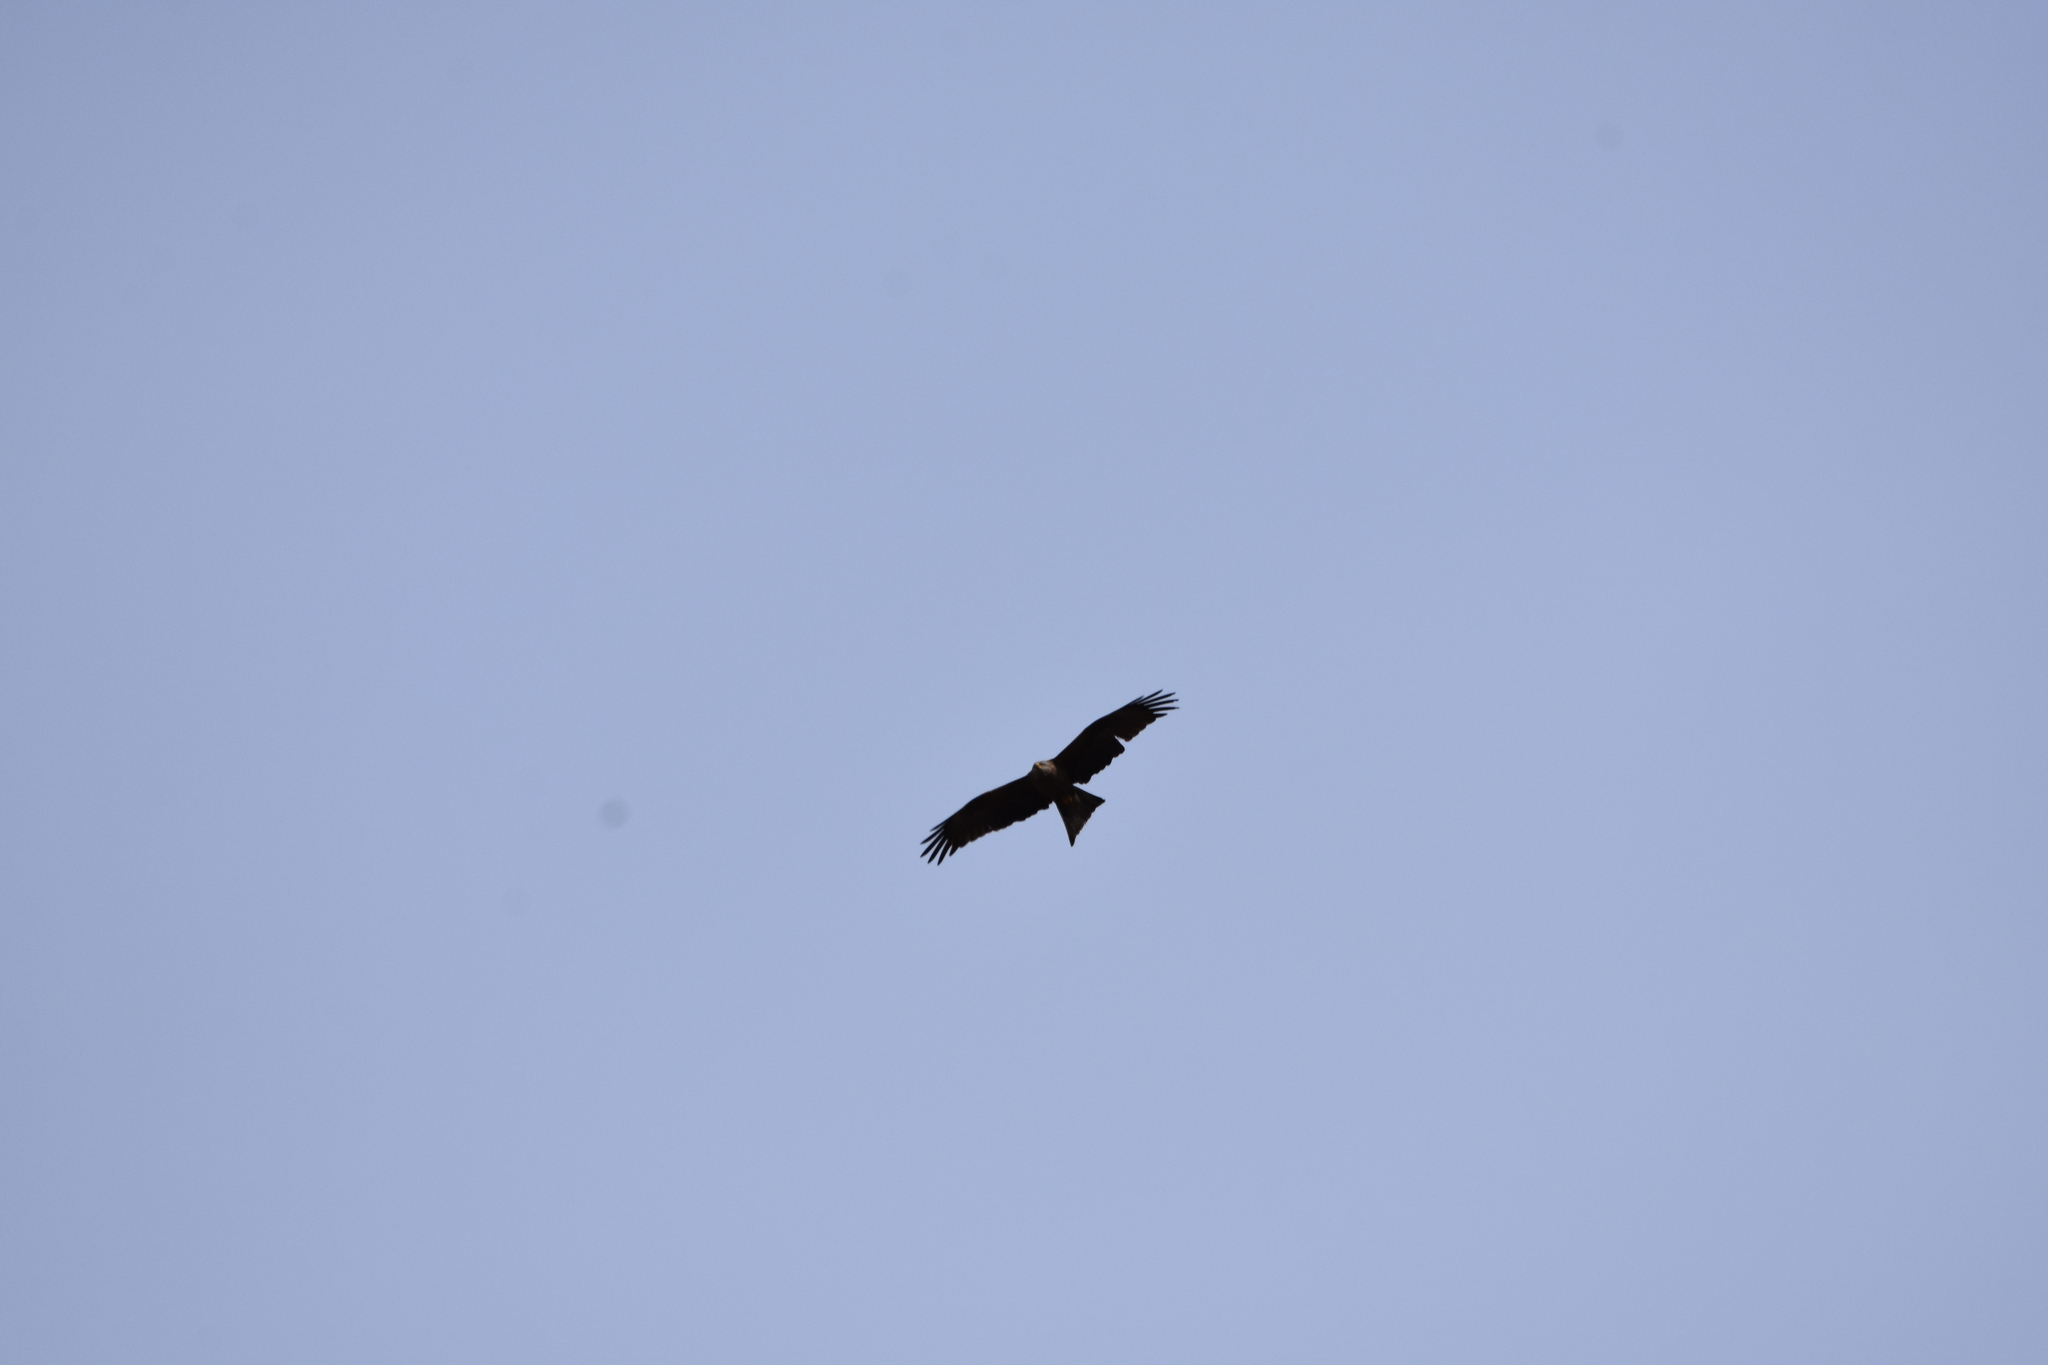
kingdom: Animalia
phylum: Chordata
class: Aves
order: Accipitriformes
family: Accipitridae
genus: Milvus
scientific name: Milvus migrans
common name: Black kite
